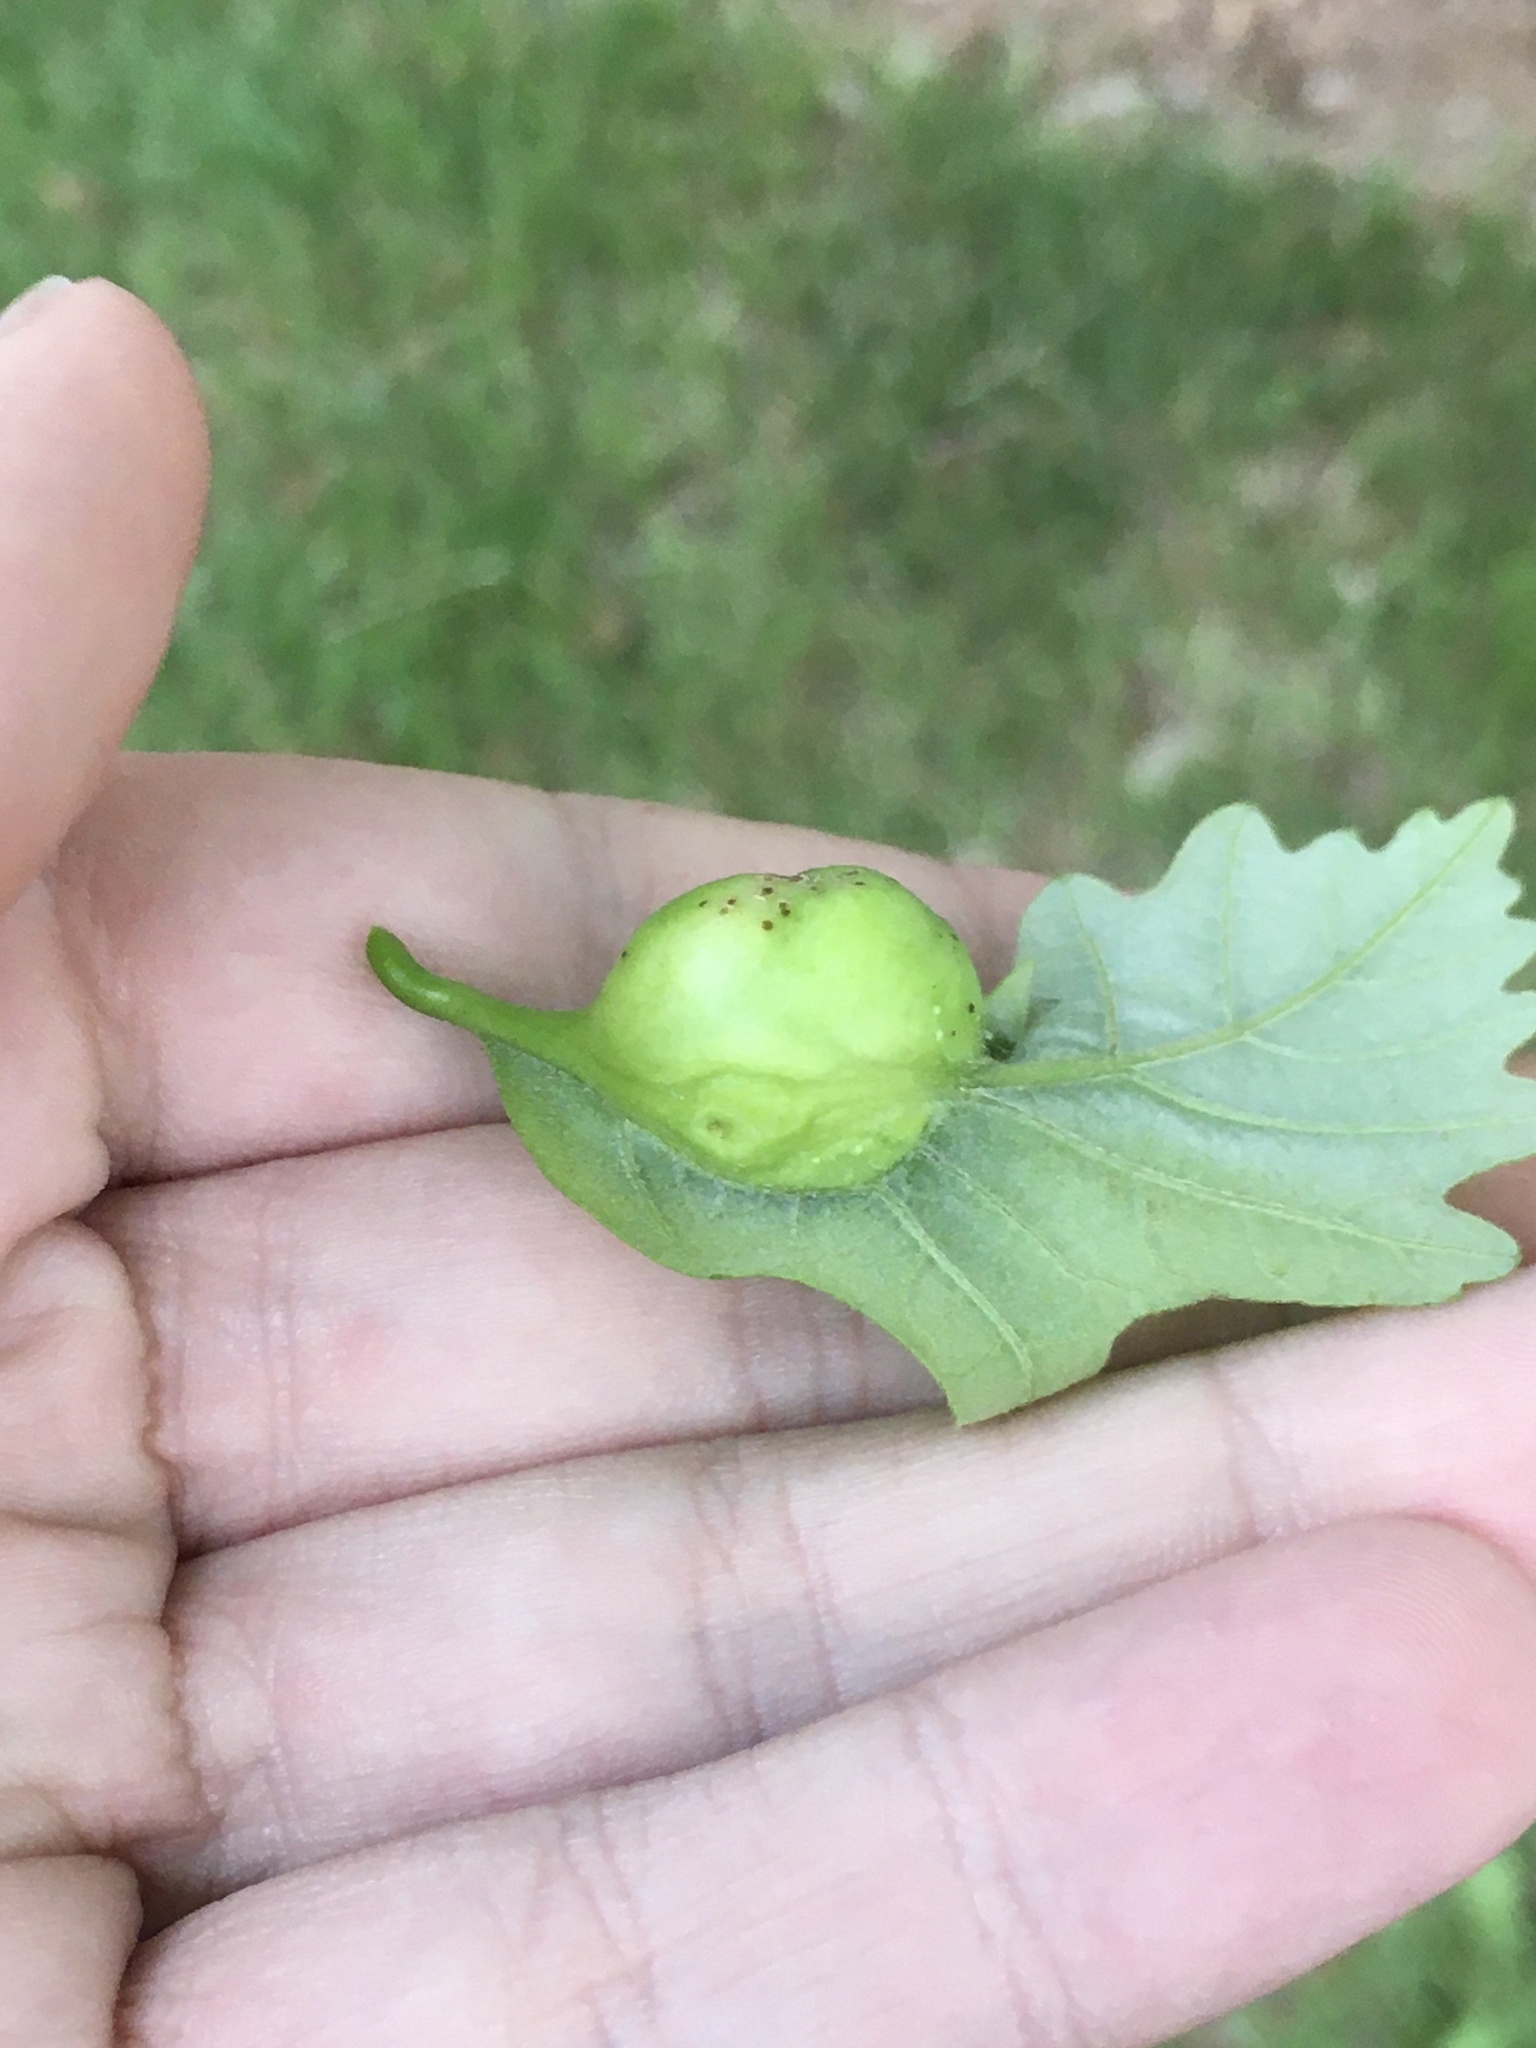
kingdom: Animalia
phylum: Arthropoda
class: Insecta
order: Hymenoptera
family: Cynipidae
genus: Andricus
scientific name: Andricus
